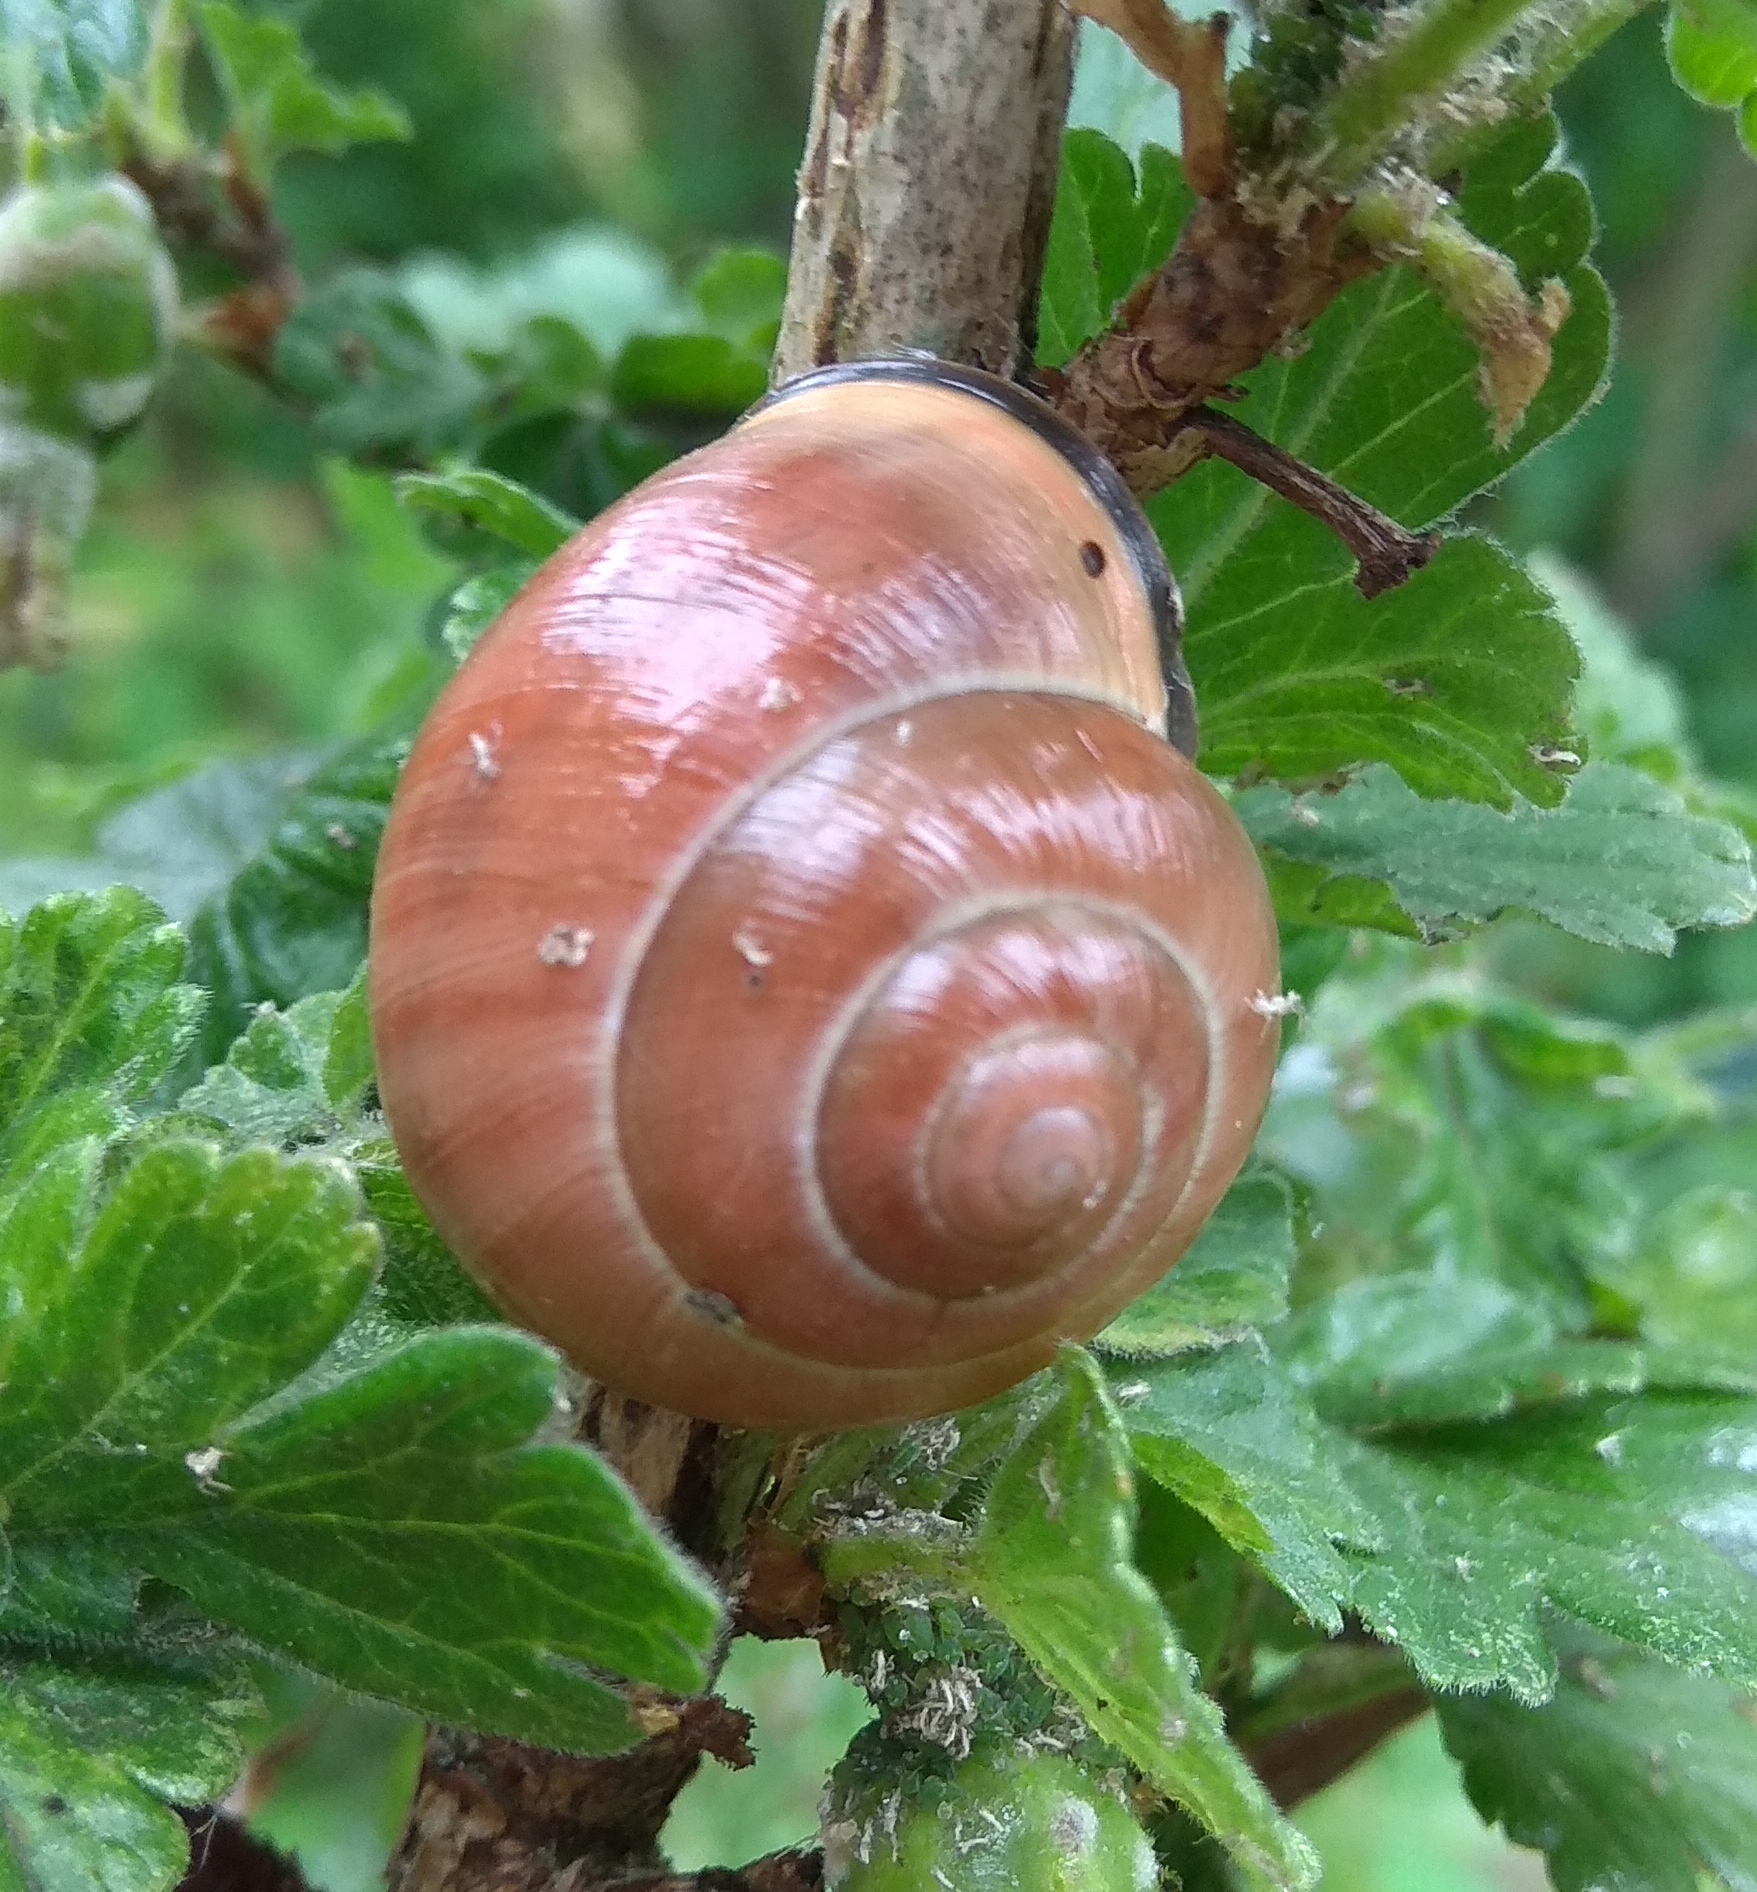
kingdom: Animalia
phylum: Mollusca
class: Gastropoda
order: Stylommatophora
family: Helicidae
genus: Cepaea
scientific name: Cepaea nemoralis
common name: Grovesnail
